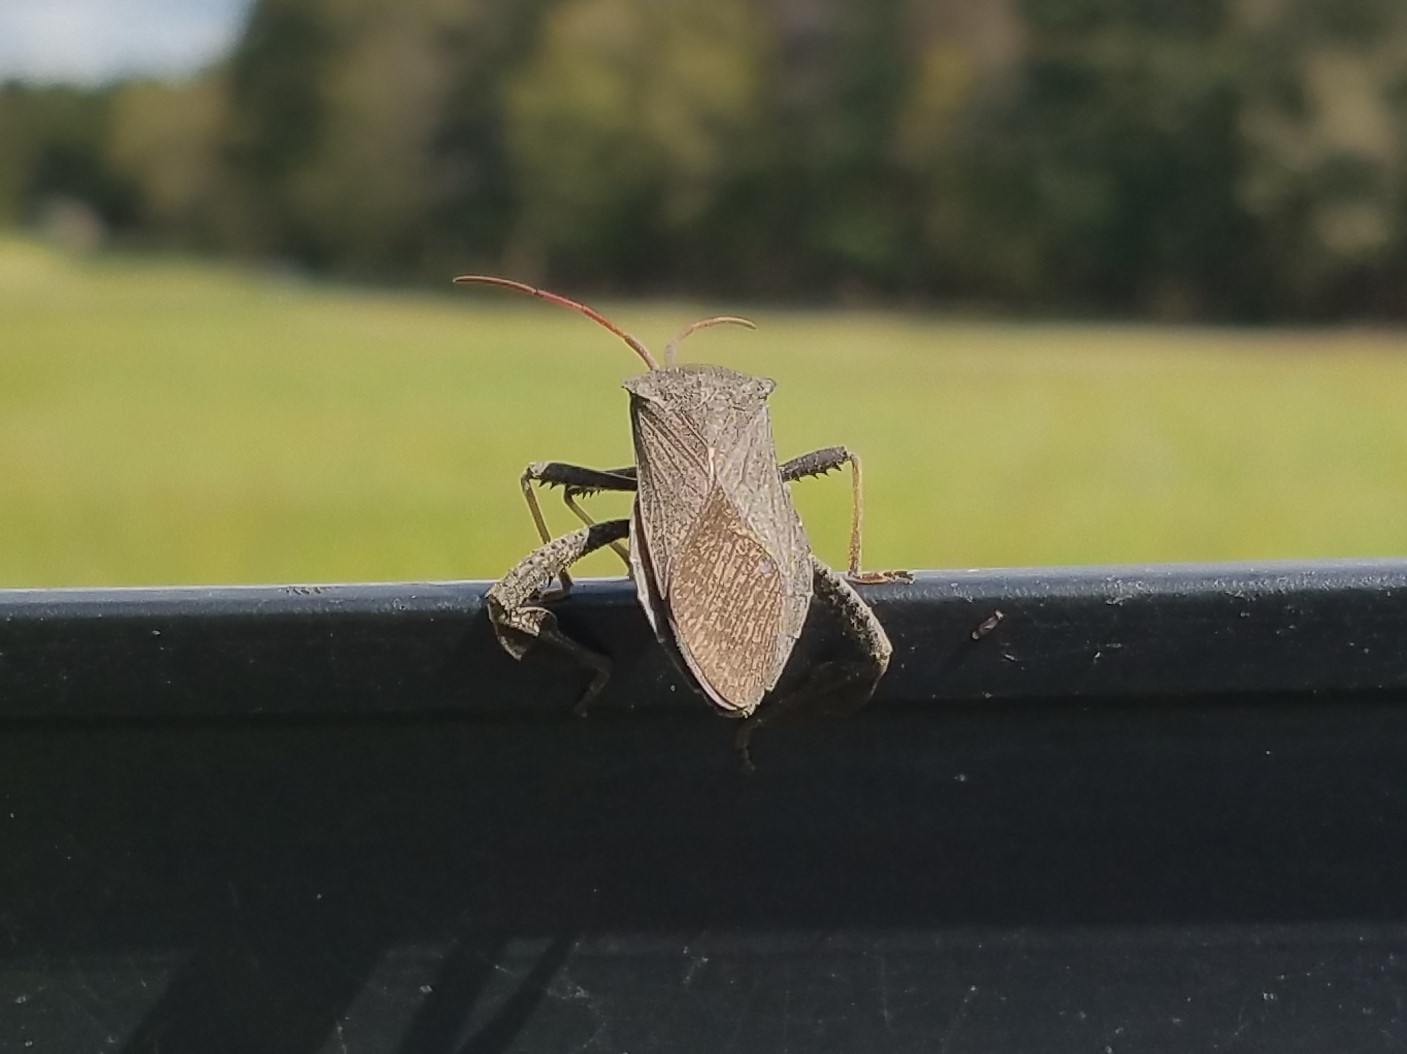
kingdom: Animalia
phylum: Arthropoda
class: Insecta
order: Hemiptera
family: Coreidae
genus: Acanthocephala
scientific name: Acanthocephala femorata
